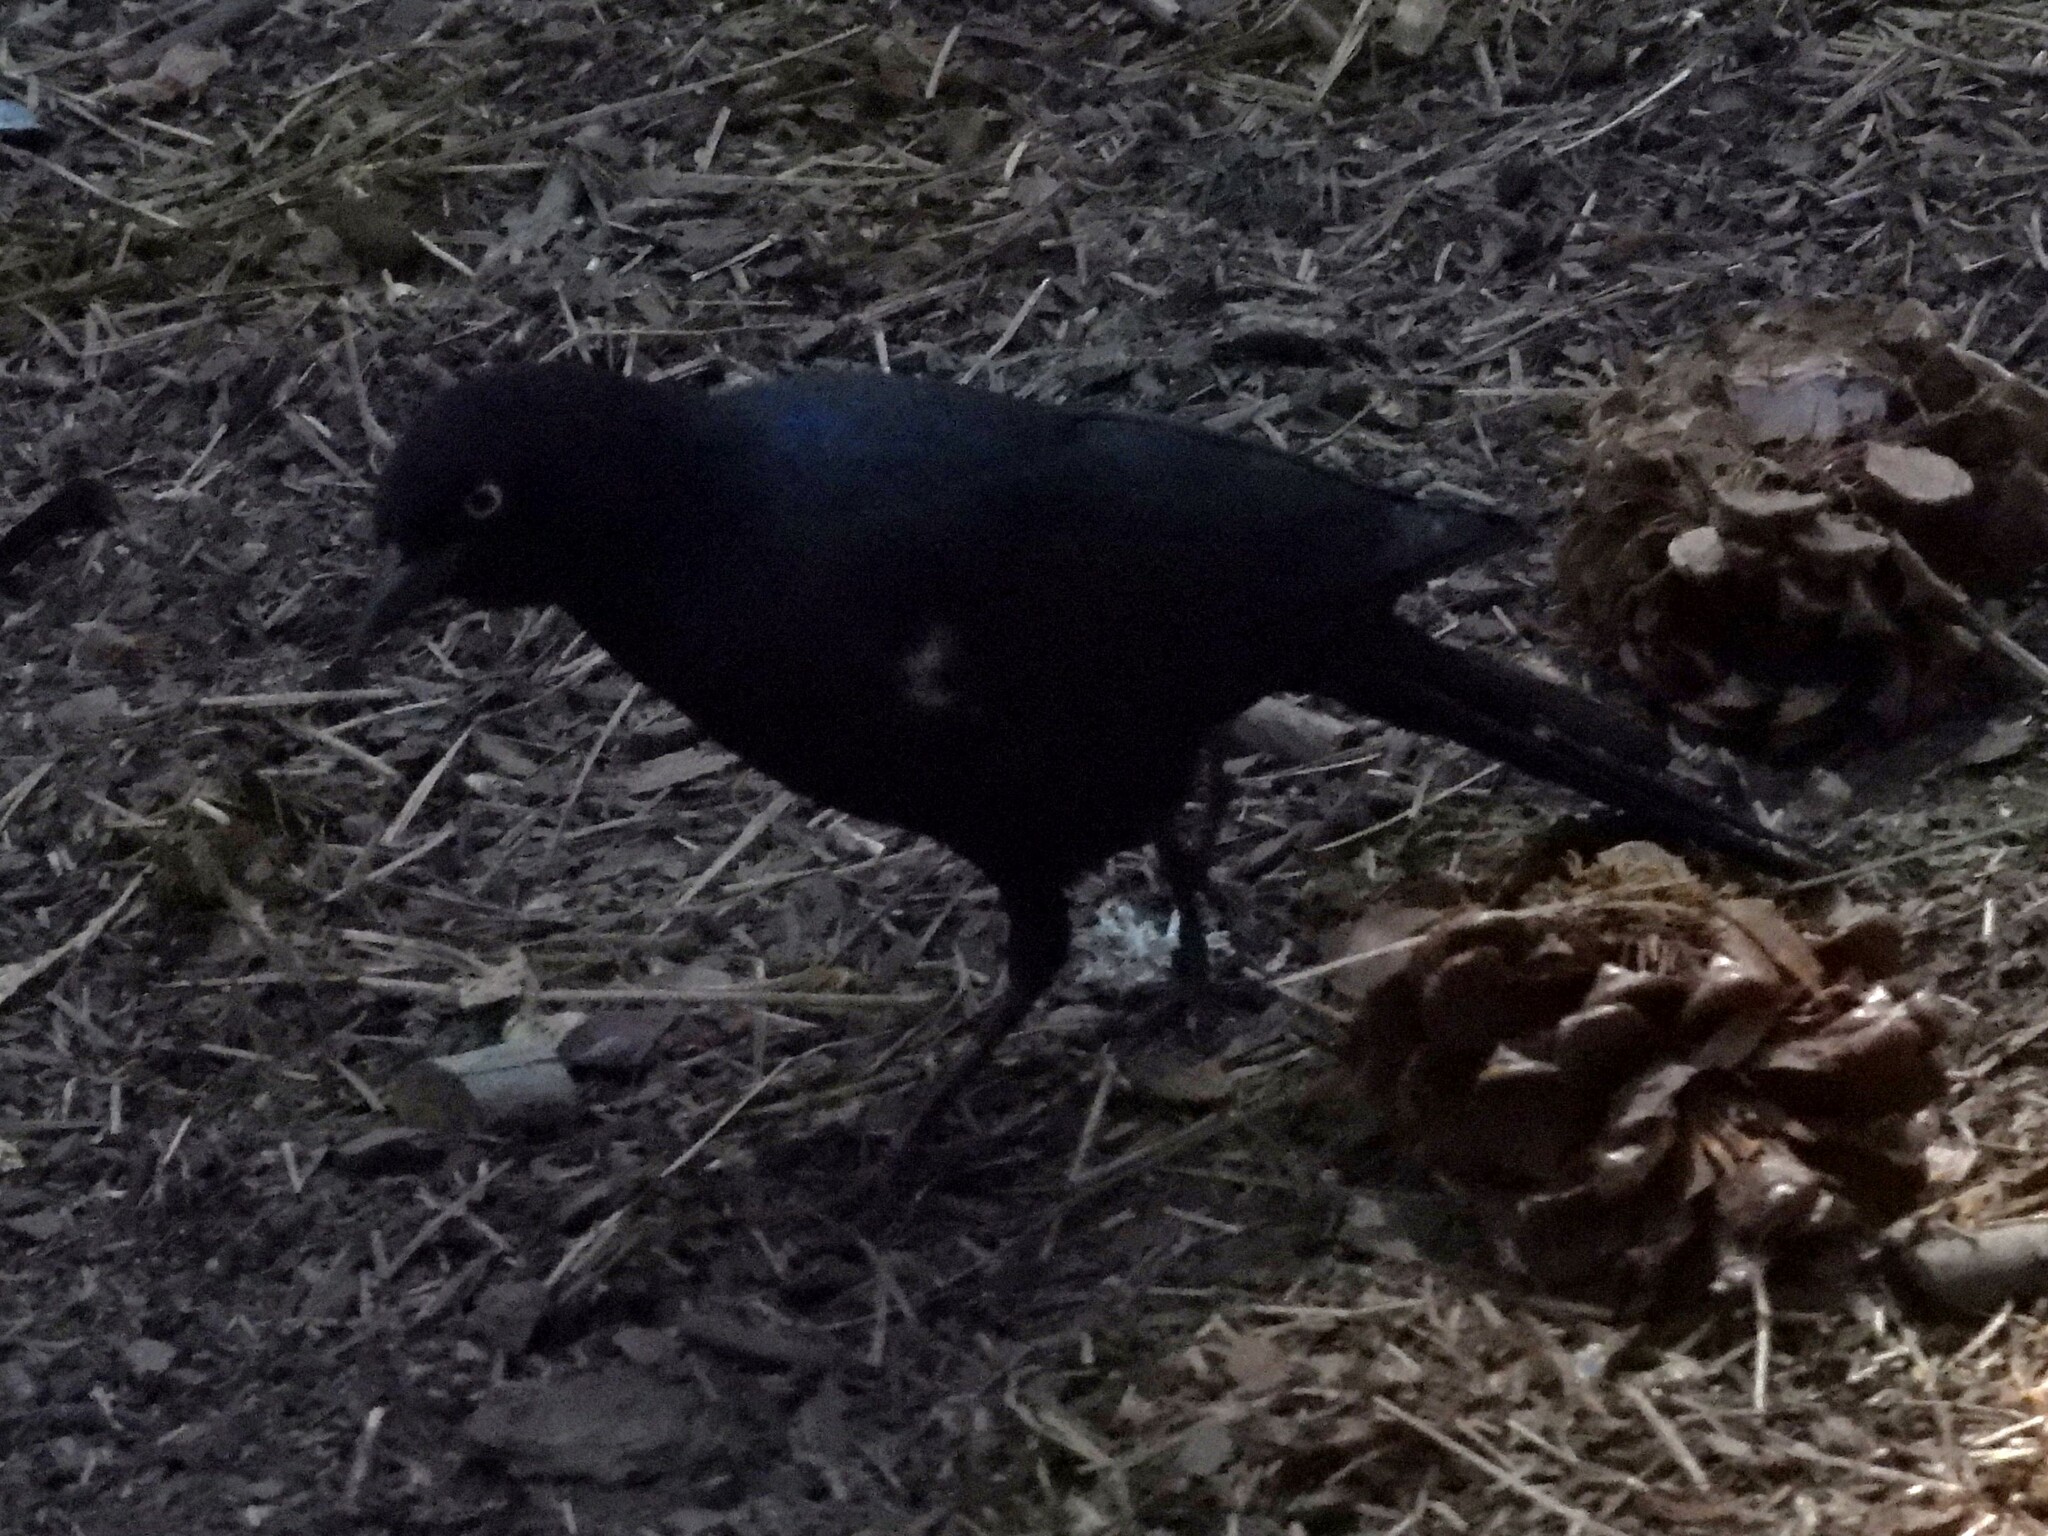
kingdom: Animalia
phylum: Chordata
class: Aves
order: Passeriformes
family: Icteridae
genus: Euphagus
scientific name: Euphagus cyanocephalus
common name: Brewer's blackbird
